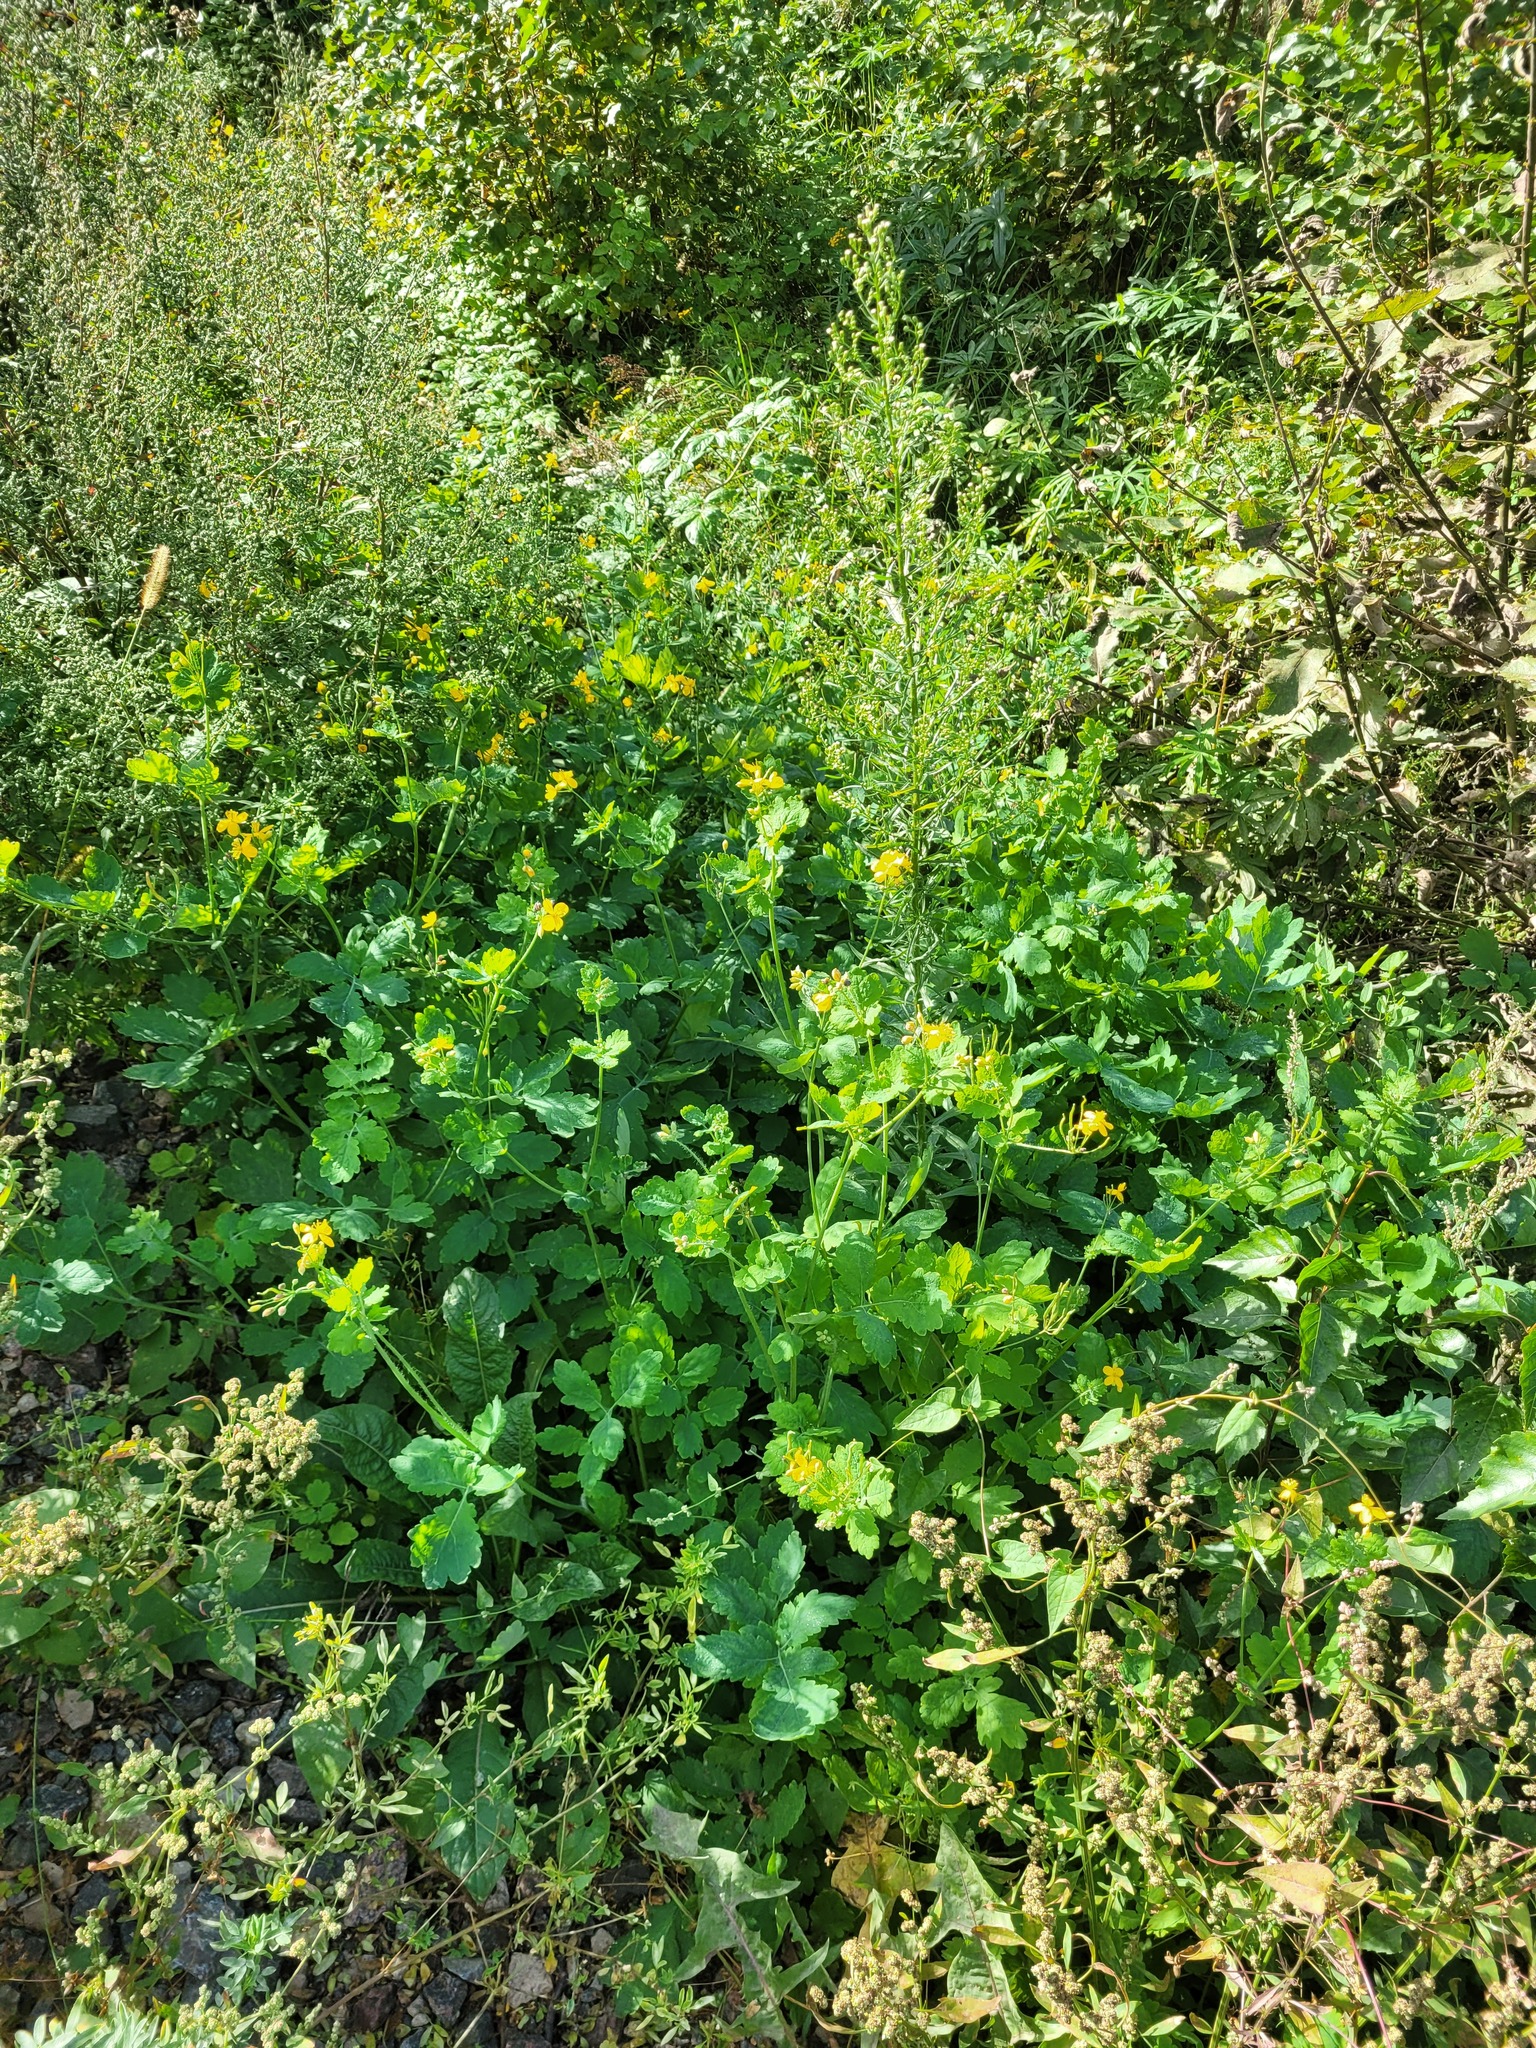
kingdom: Plantae
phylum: Tracheophyta
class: Magnoliopsida
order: Ranunculales
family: Papaveraceae
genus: Chelidonium
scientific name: Chelidonium majus
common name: Greater celandine
